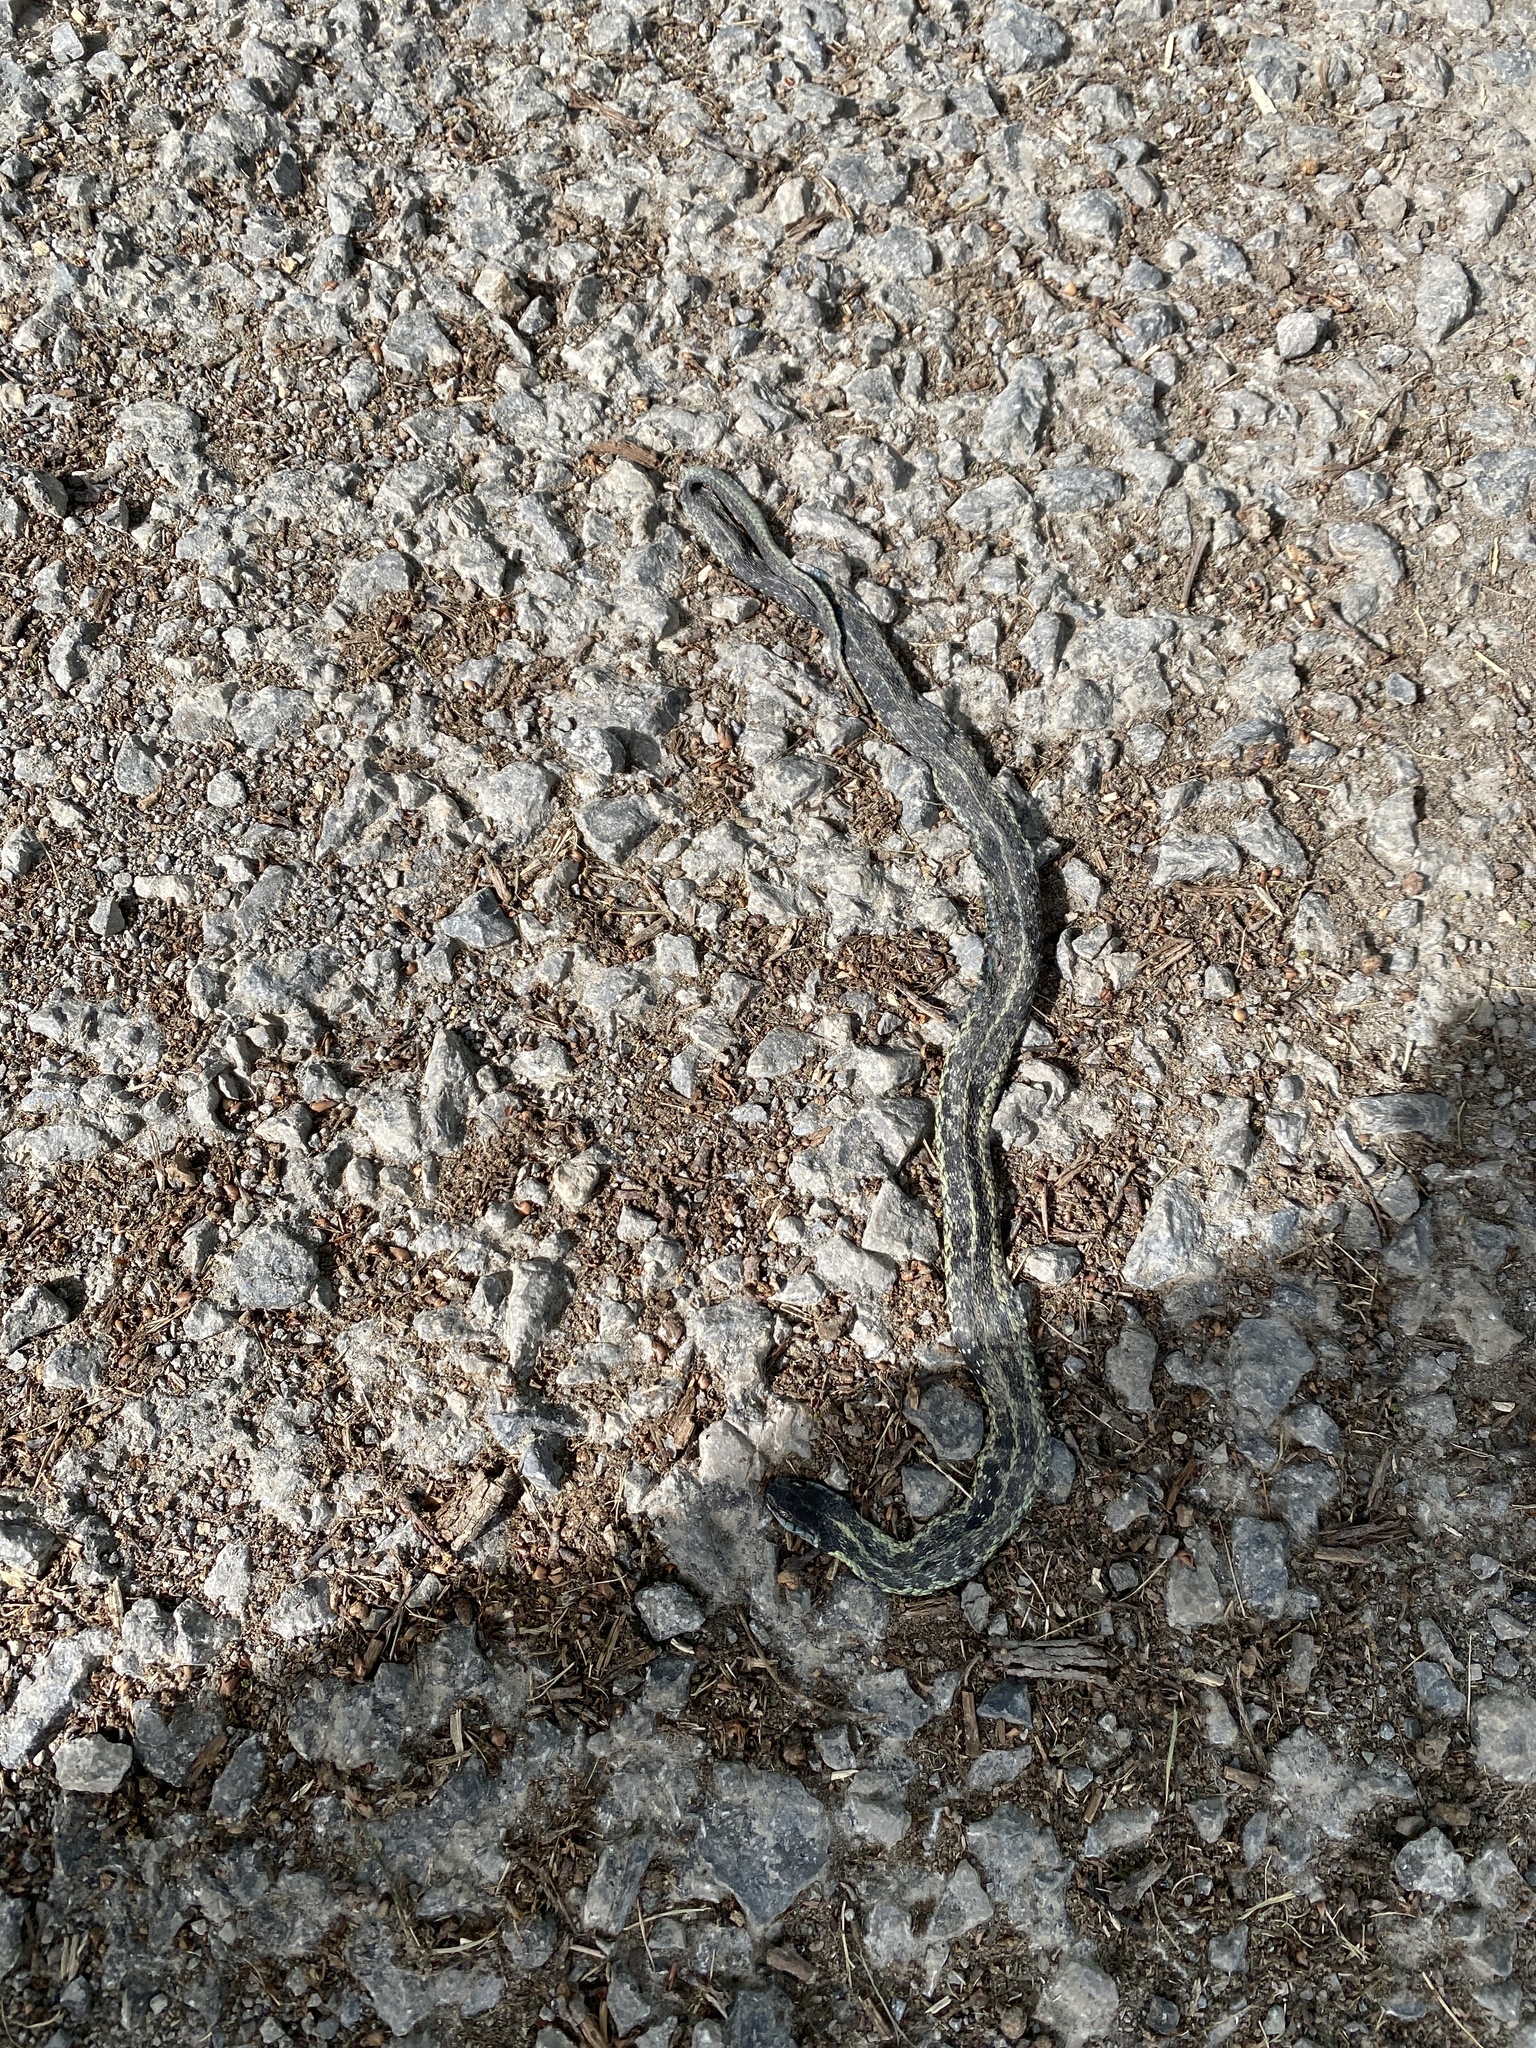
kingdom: Animalia
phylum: Chordata
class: Squamata
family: Colubridae
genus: Thamnophis
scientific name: Thamnophis sirtalis
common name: Common garter snake
